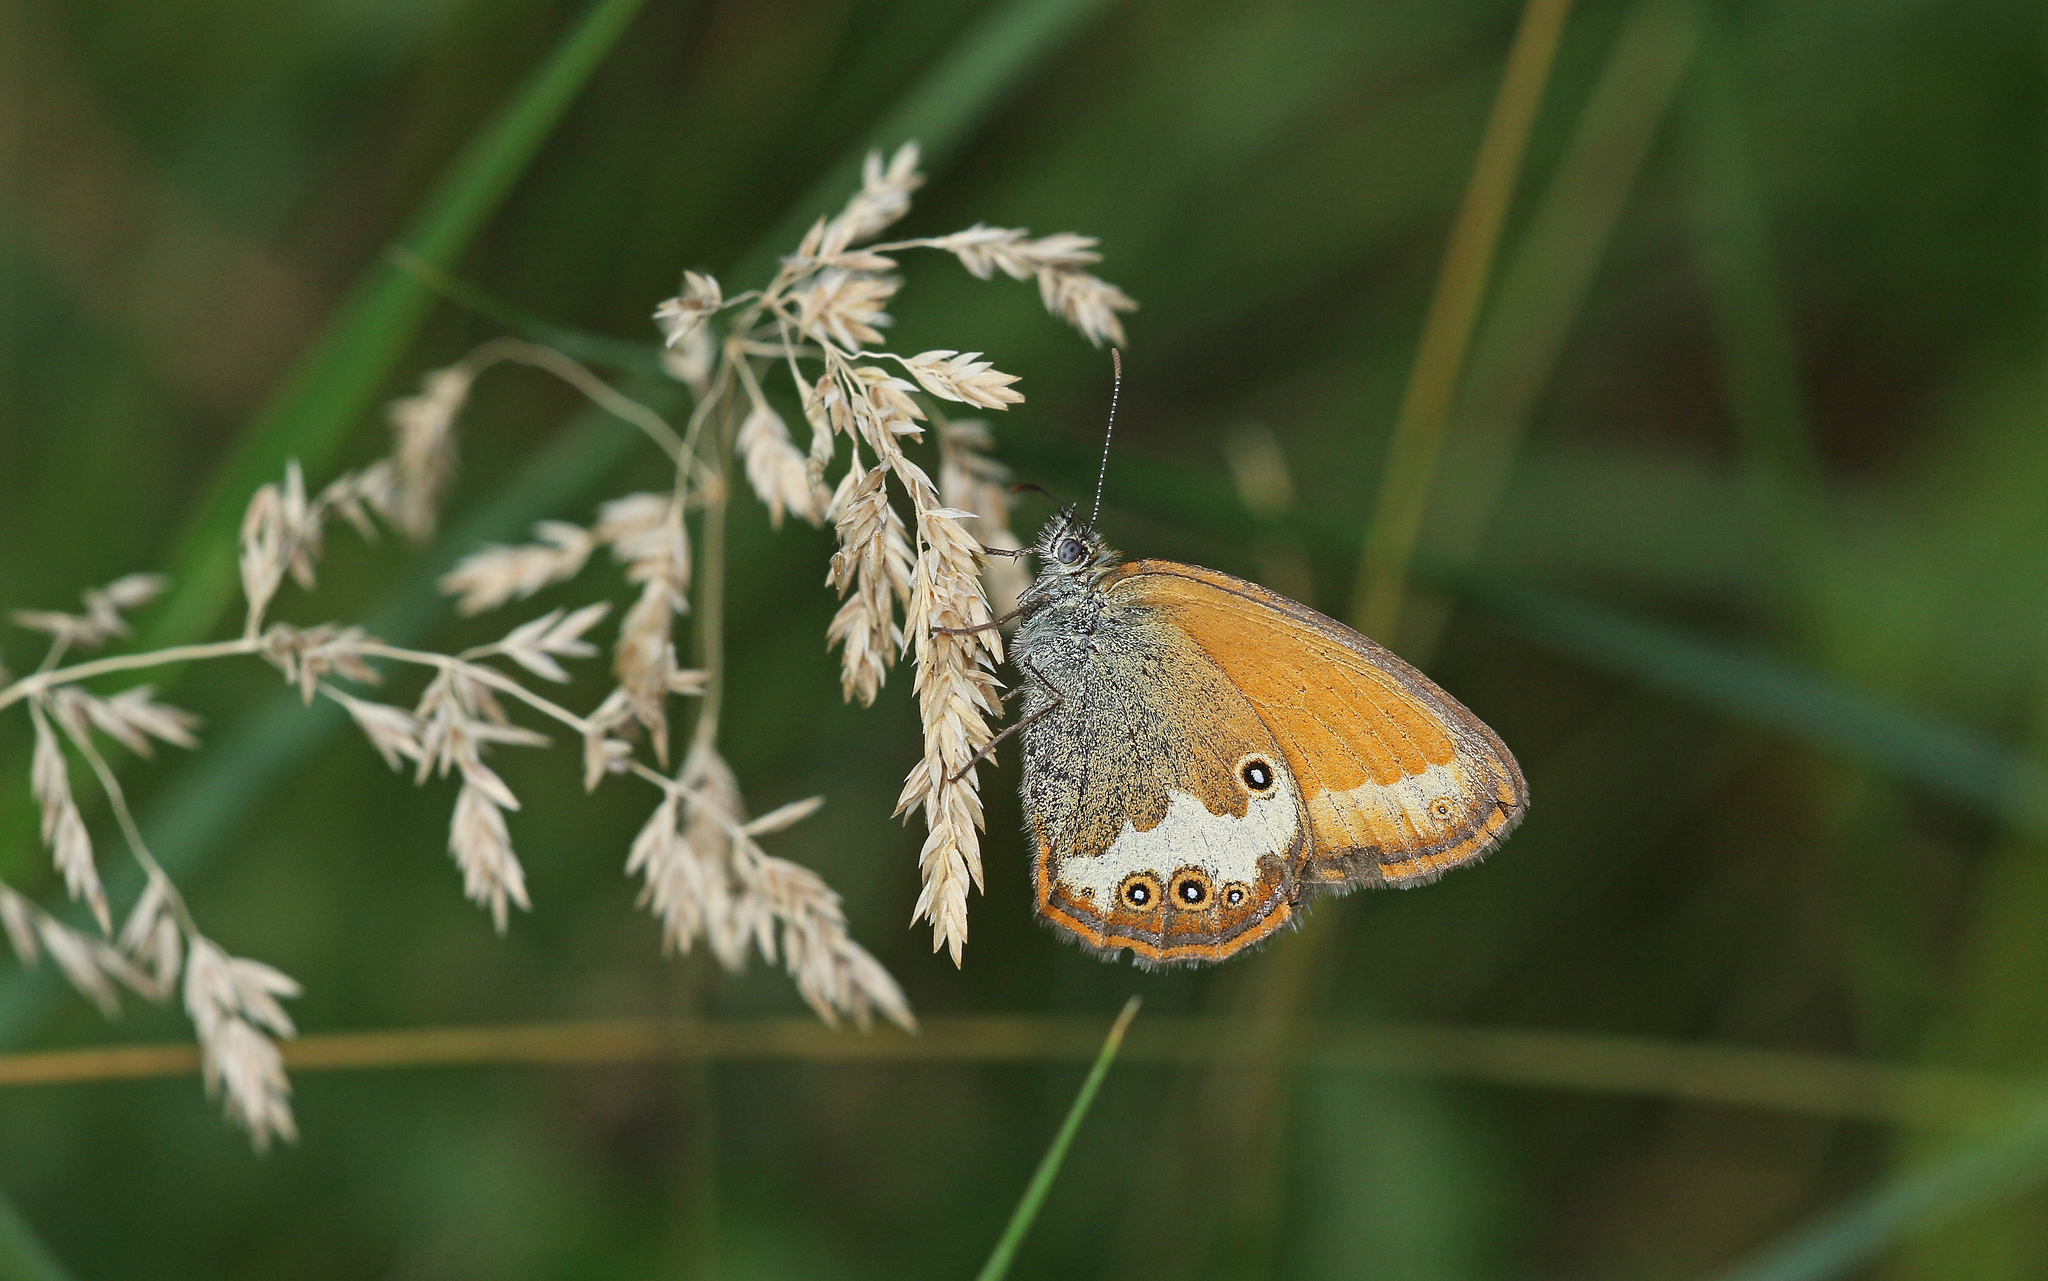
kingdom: Animalia
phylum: Arthropoda
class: Insecta
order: Lepidoptera
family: Nymphalidae
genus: Coenonympha
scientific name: Coenonympha arcania
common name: Pearly heath
